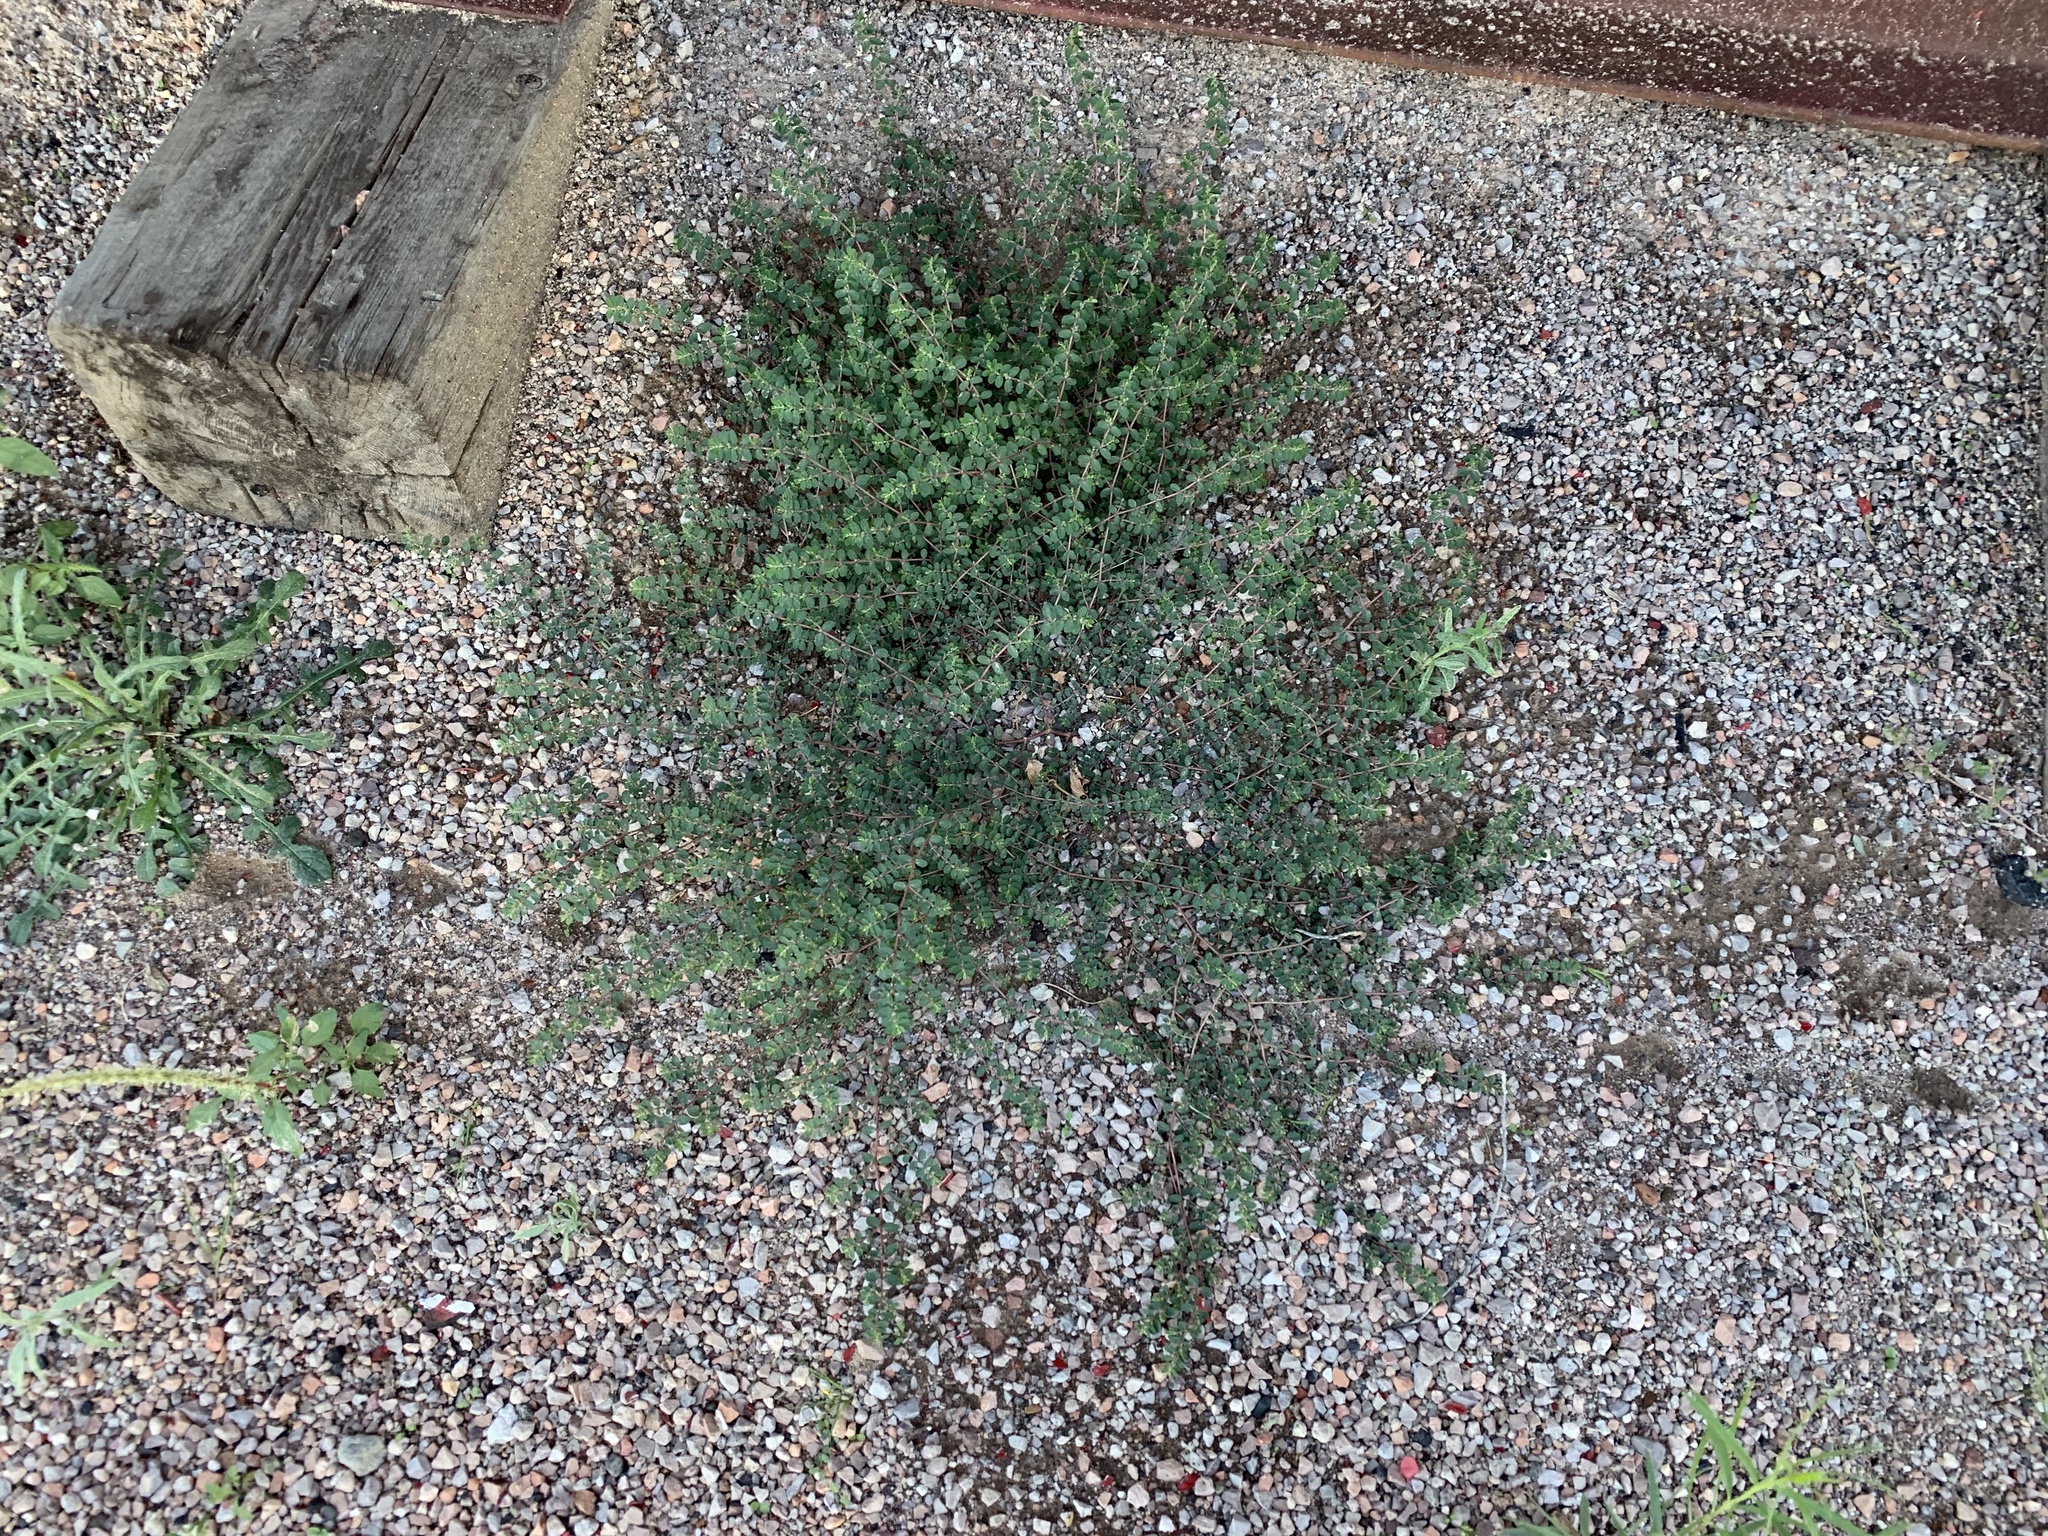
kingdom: Plantae
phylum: Tracheophyta
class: Magnoliopsida
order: Malpighiales
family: Euphorbiaceae
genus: Euphorbia
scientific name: Euphorbia prostrata
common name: Prostrate sandmat
